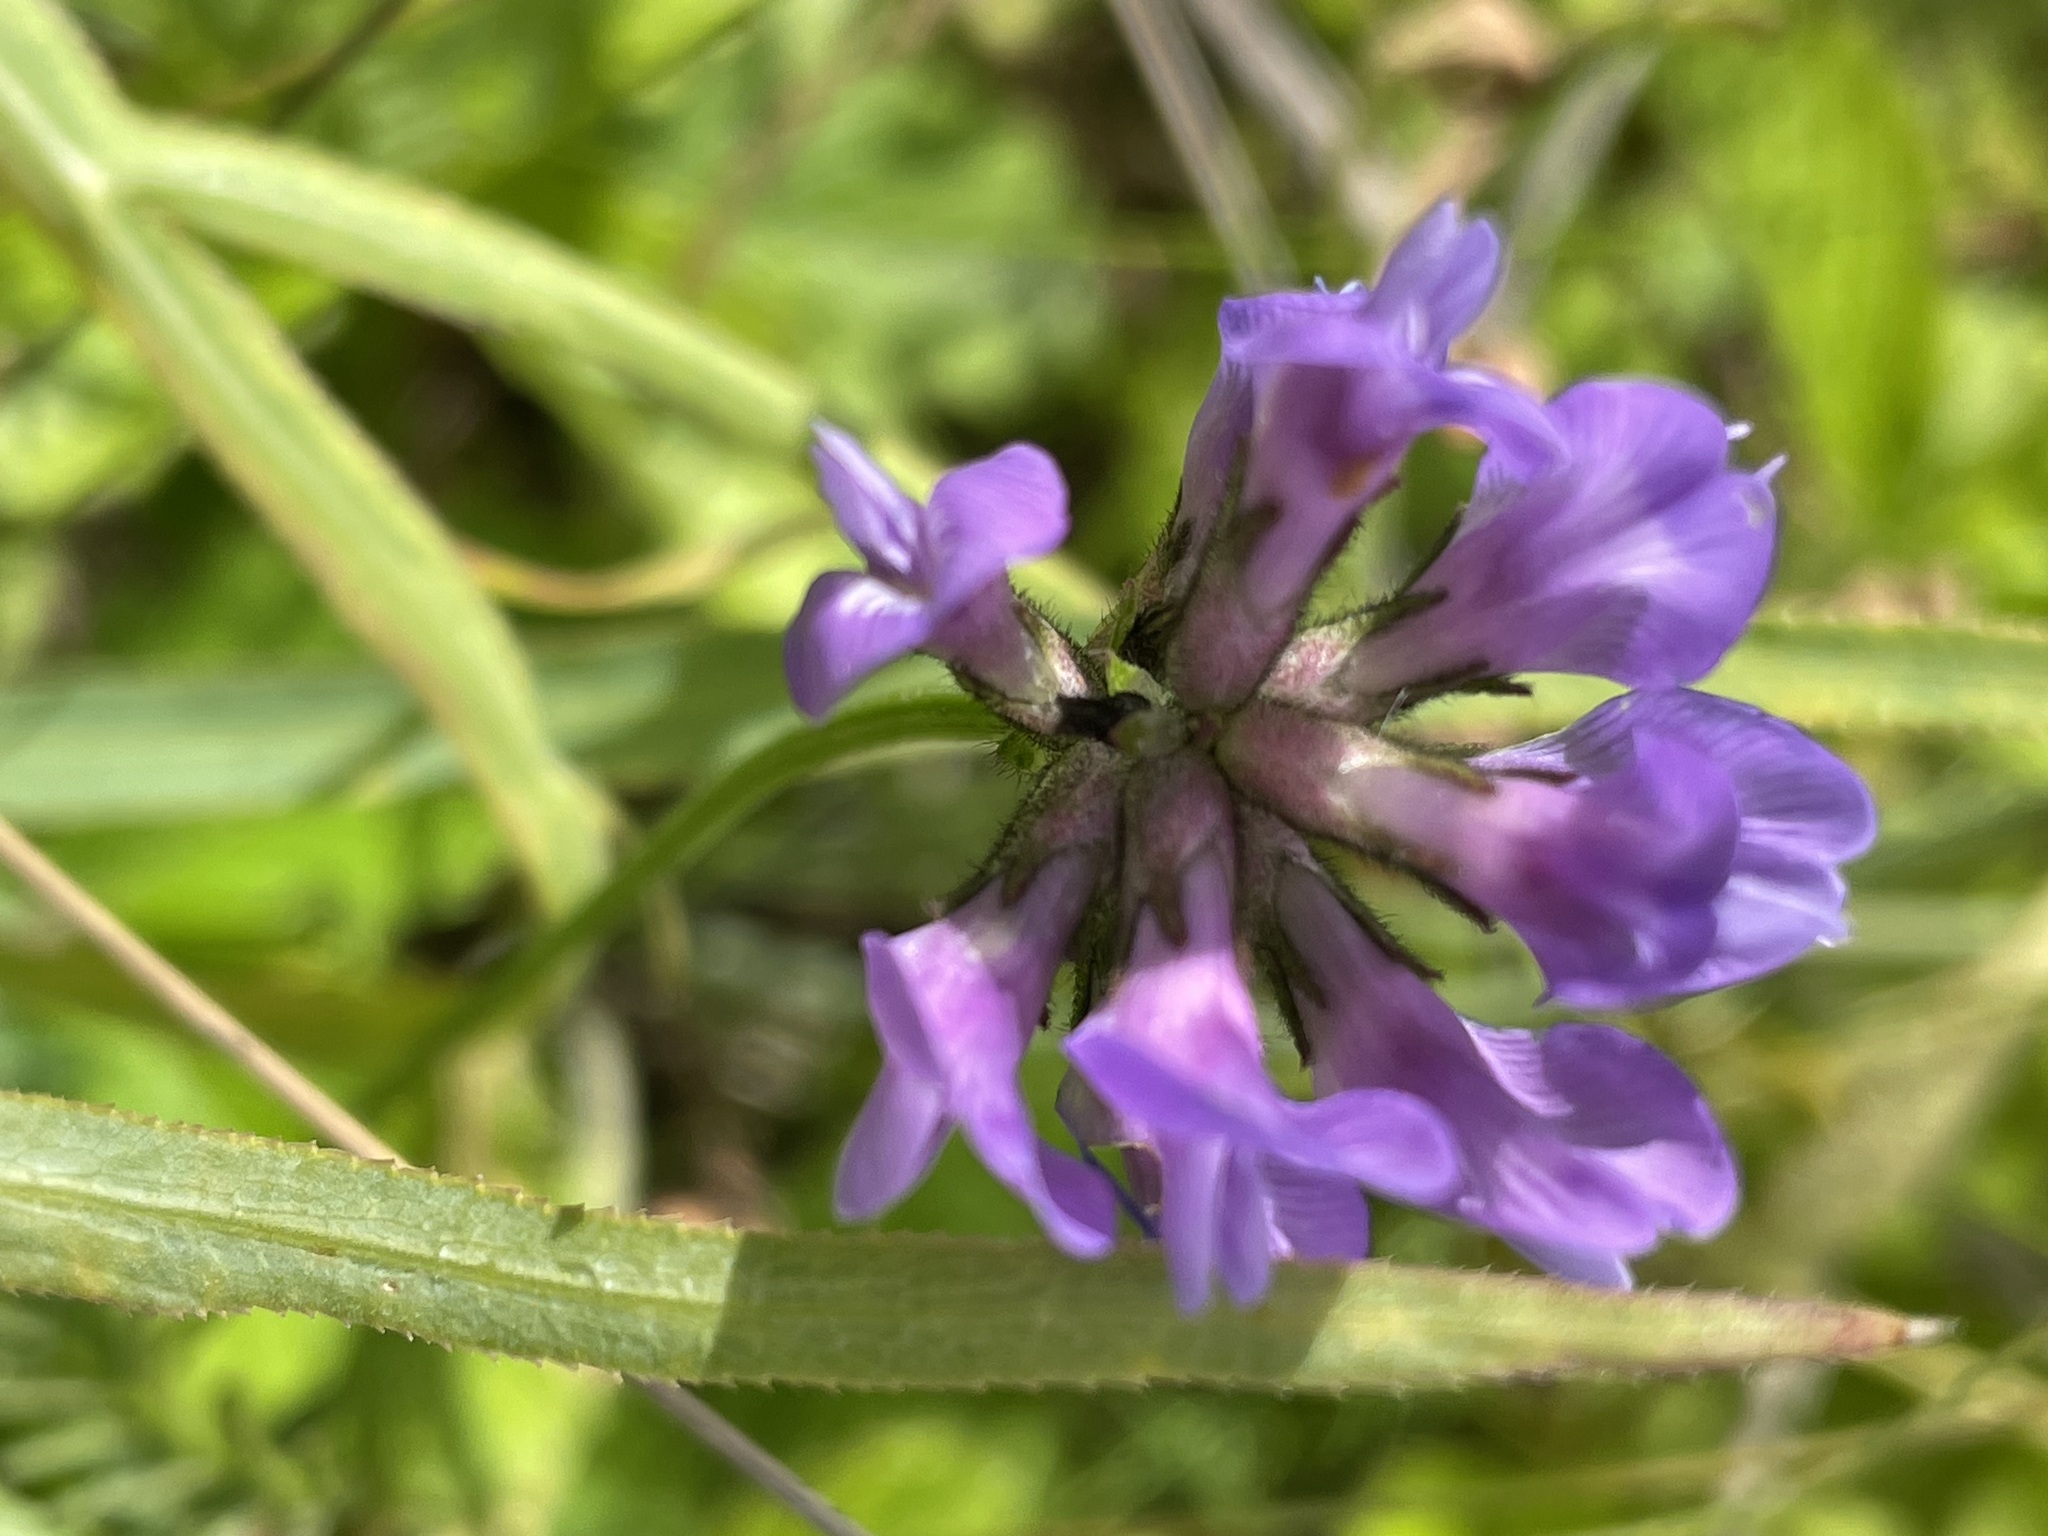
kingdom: Plantae
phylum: Tracheophyta
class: Magnoliopsida
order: Fabales
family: Fabaceae
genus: Astragalus
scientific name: Astragalus danicus
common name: Purple milk-vetch
